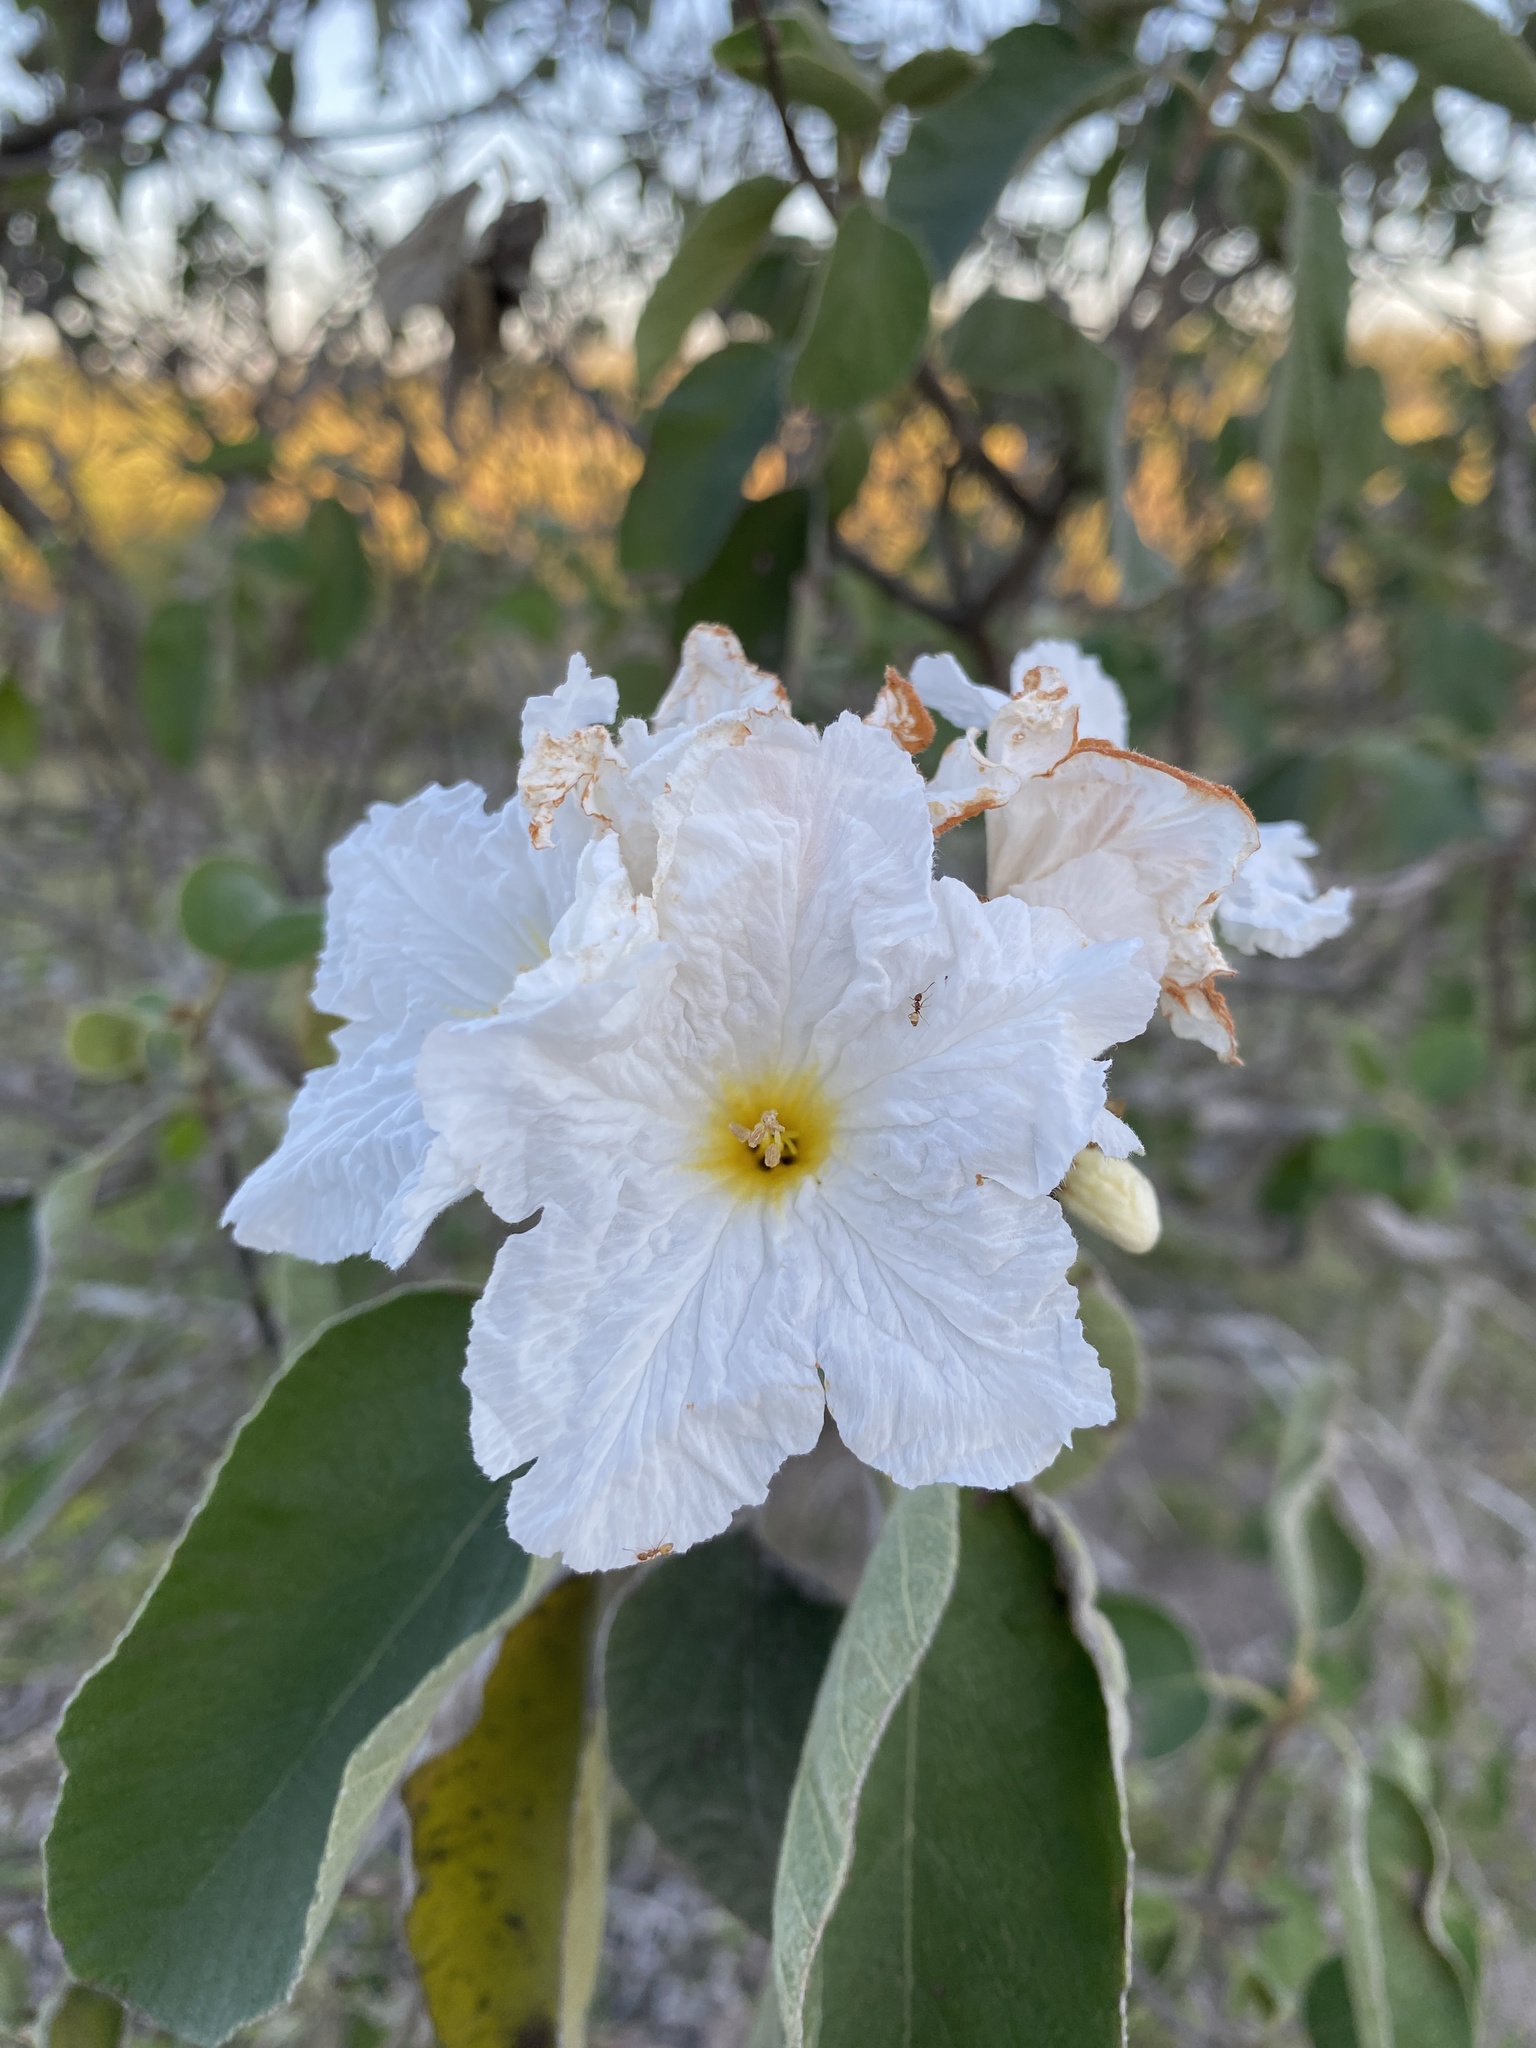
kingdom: Plantae
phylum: Tracheophyta
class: Magnoliopsida
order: Boraginales
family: Cordiaceae
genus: Cordia
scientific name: Cordia boissieri
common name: Mexican-olive
